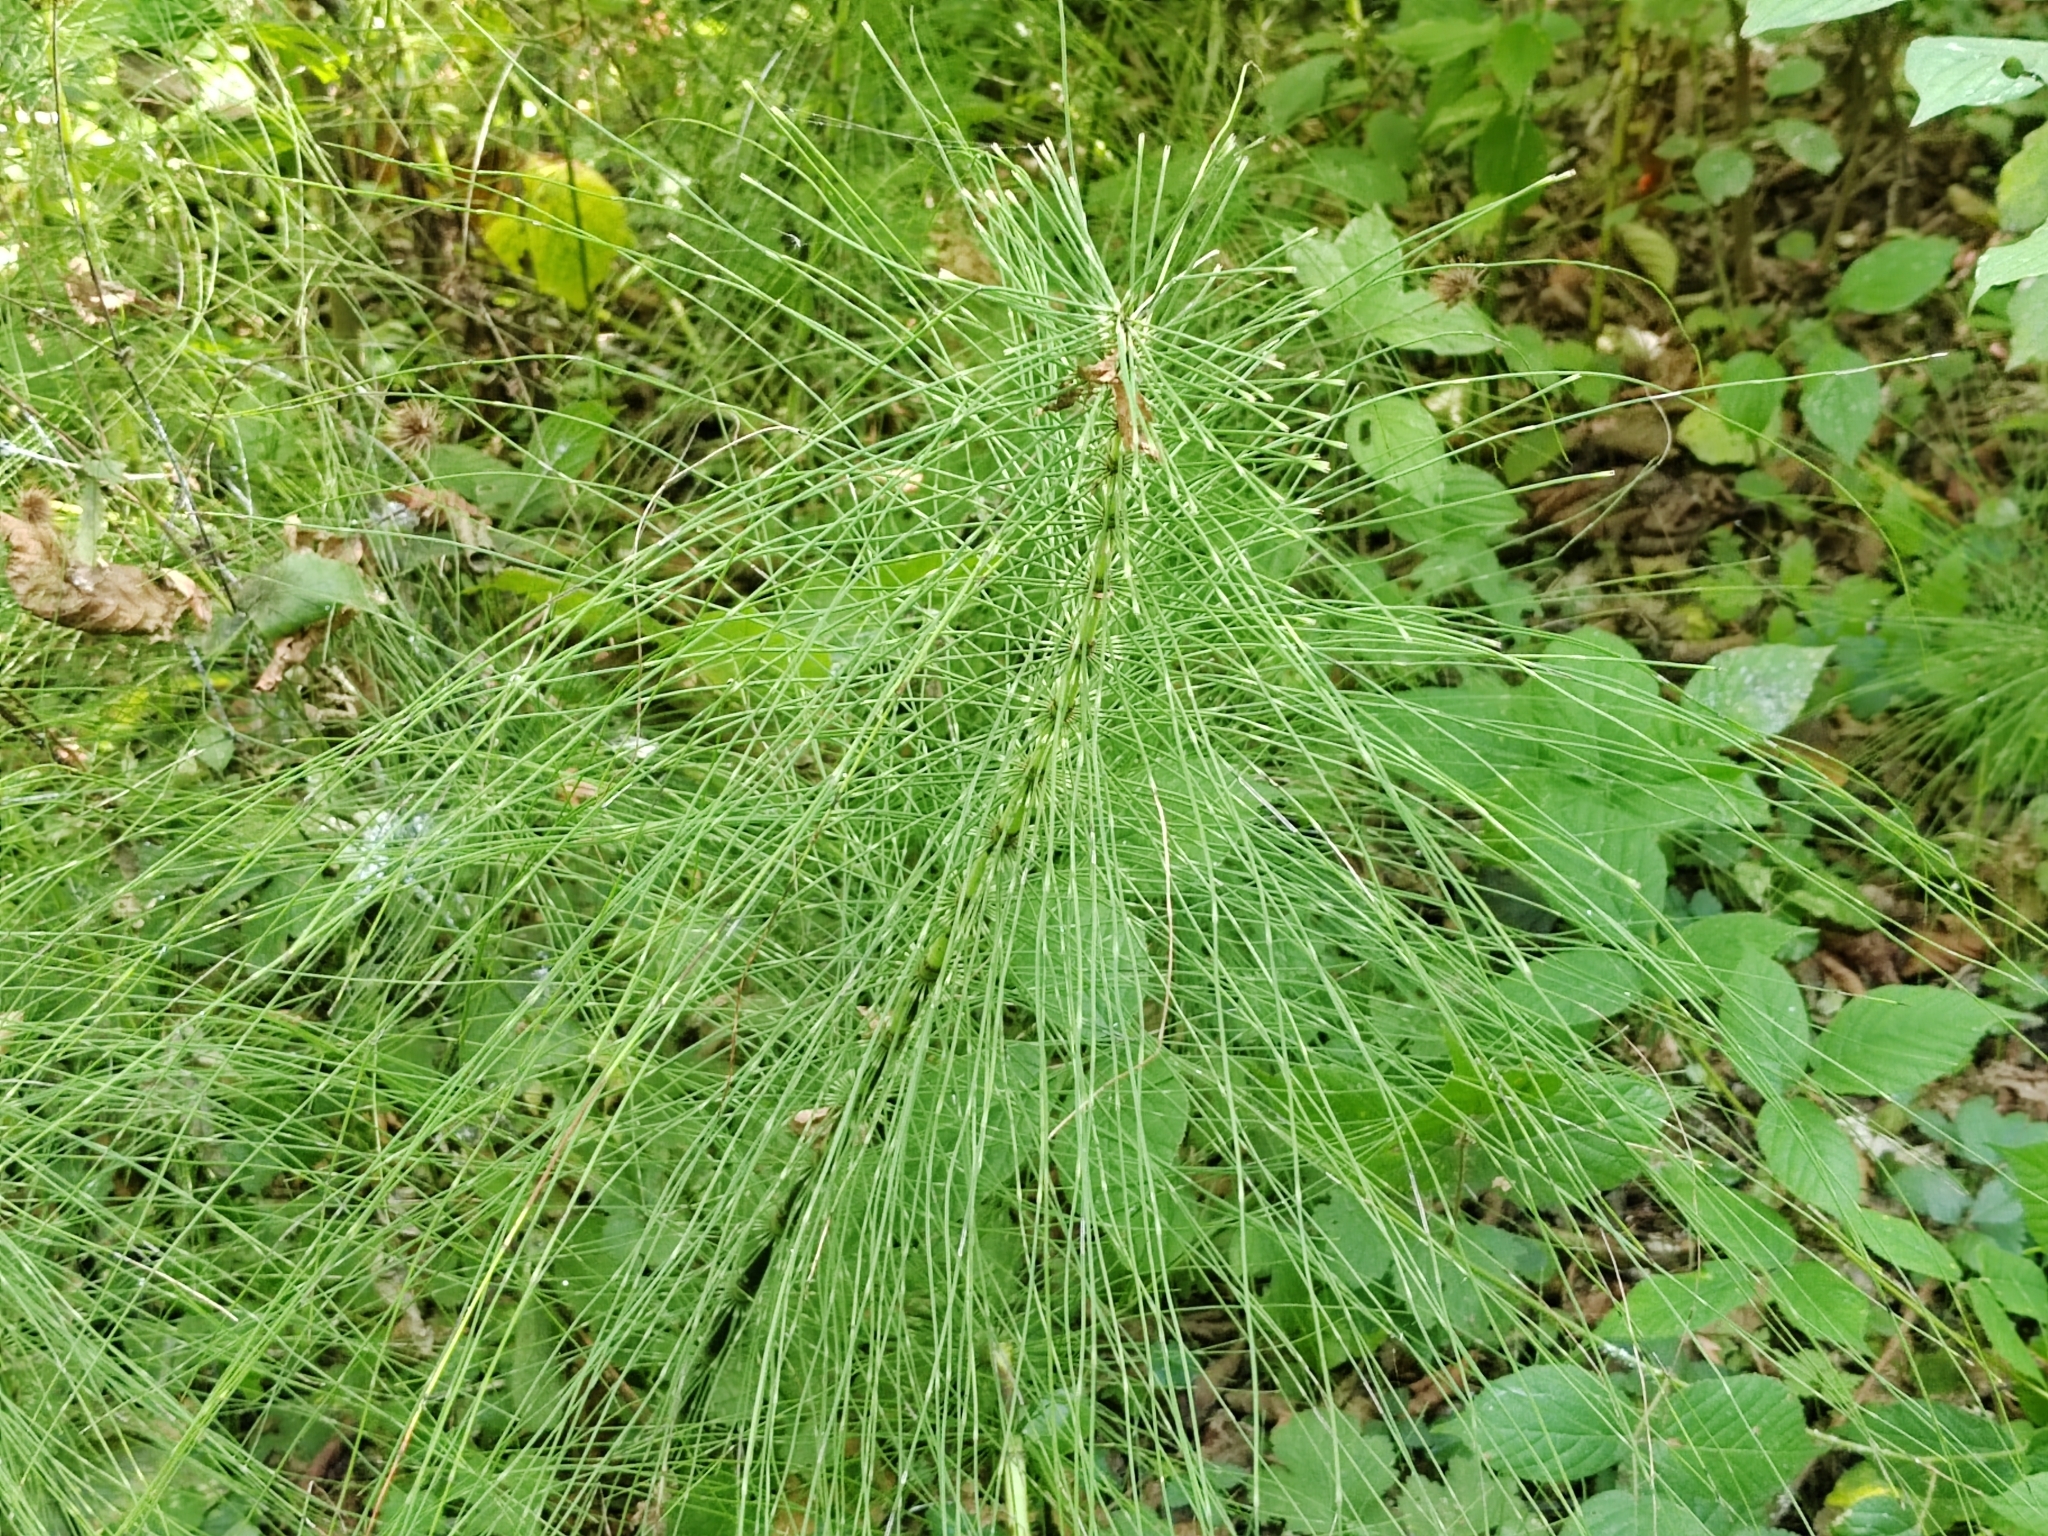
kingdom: Plantae
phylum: Tracheophyta
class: Polypodiopsida
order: Equisetales
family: Equisetaceae
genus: Equisetum
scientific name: Equisetum telmateia
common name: Great horsetail
